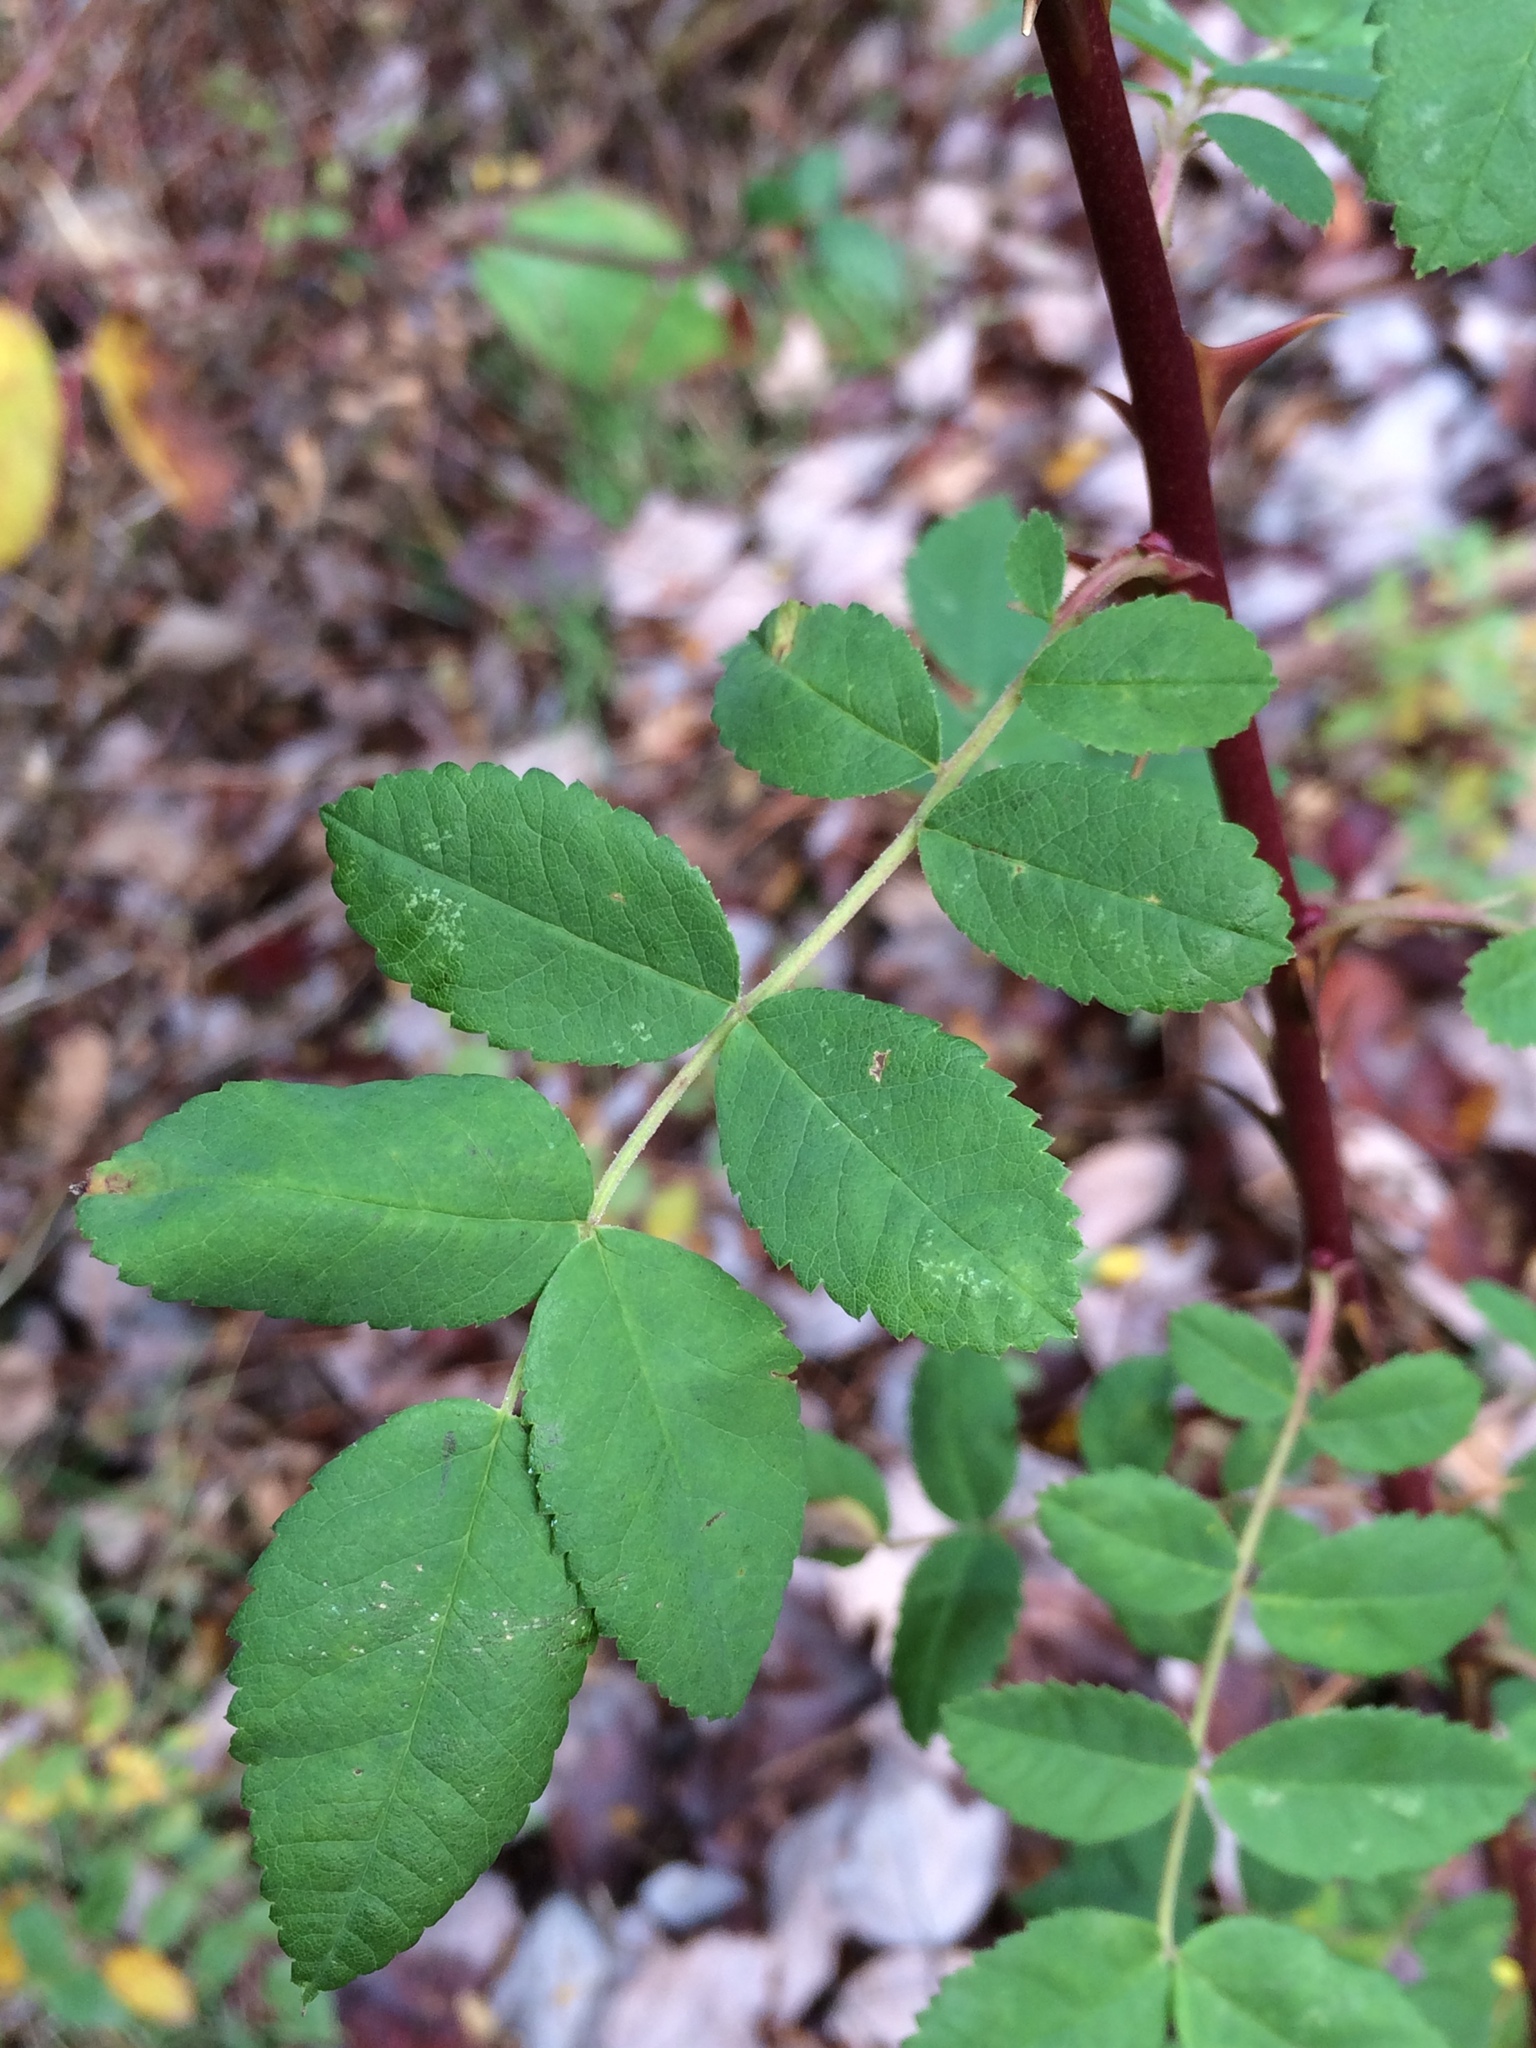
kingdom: Plantae
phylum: Tracheophyta
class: Magnoliopsida
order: Rosales
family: Rosaceae
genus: Rosa
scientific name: Rosa nutkana
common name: Nootka rose
